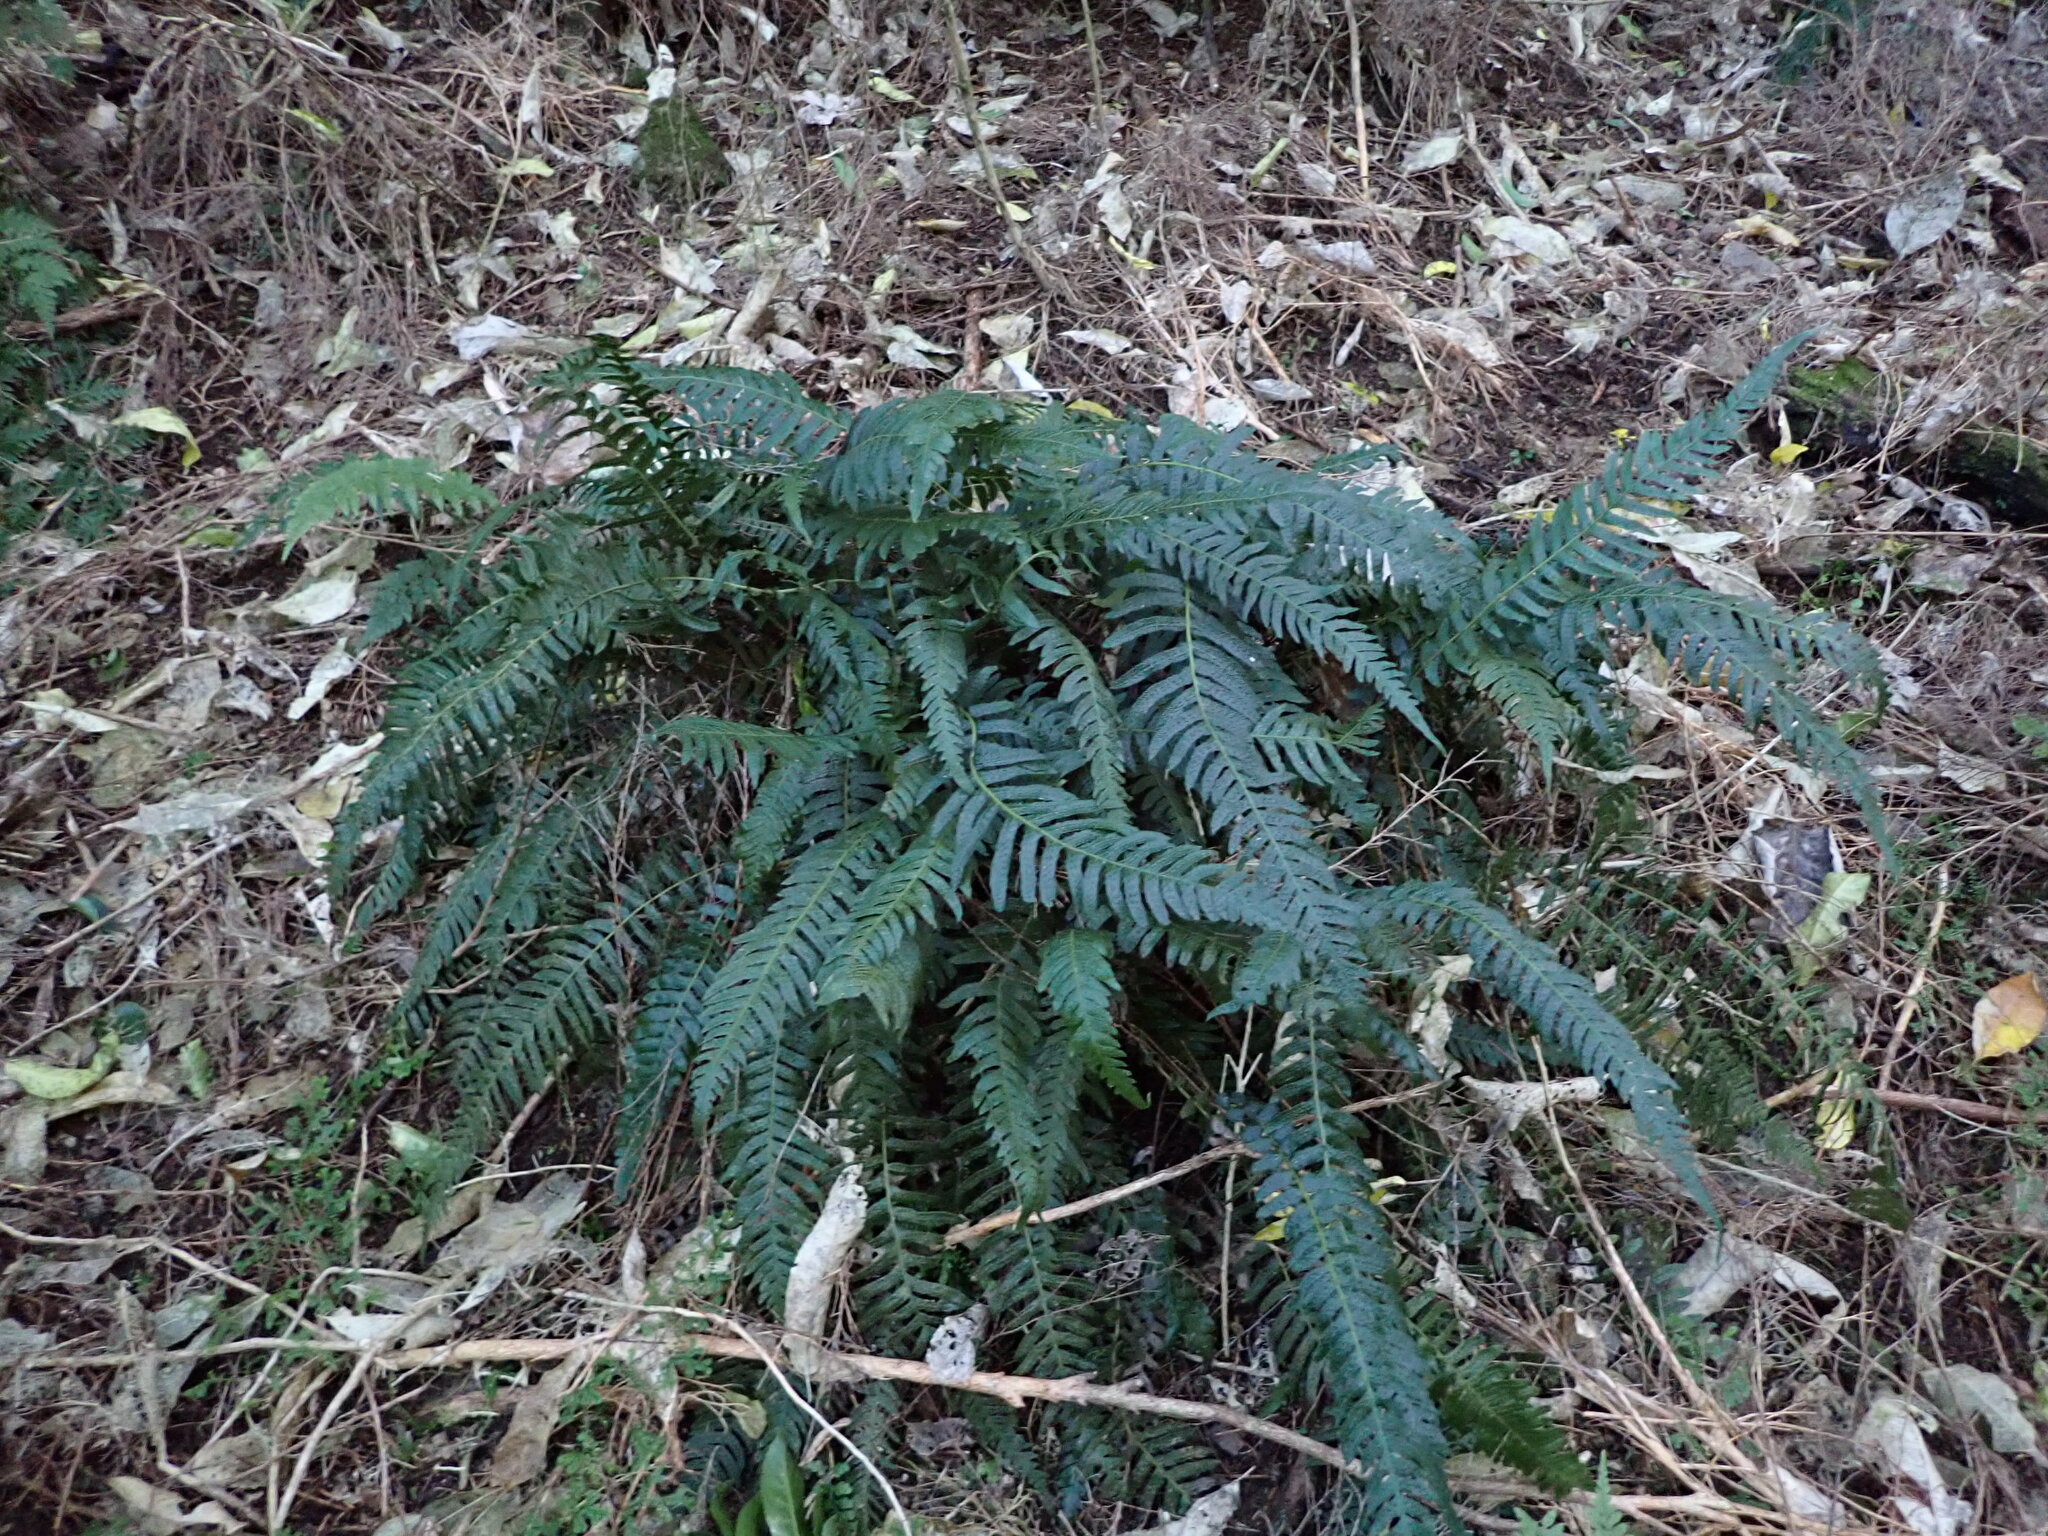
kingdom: Plantae
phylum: Tracheophyta
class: Polypodiopsida
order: Polypodiales
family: Blechnaceae
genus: Doodia
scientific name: Doodia australis
